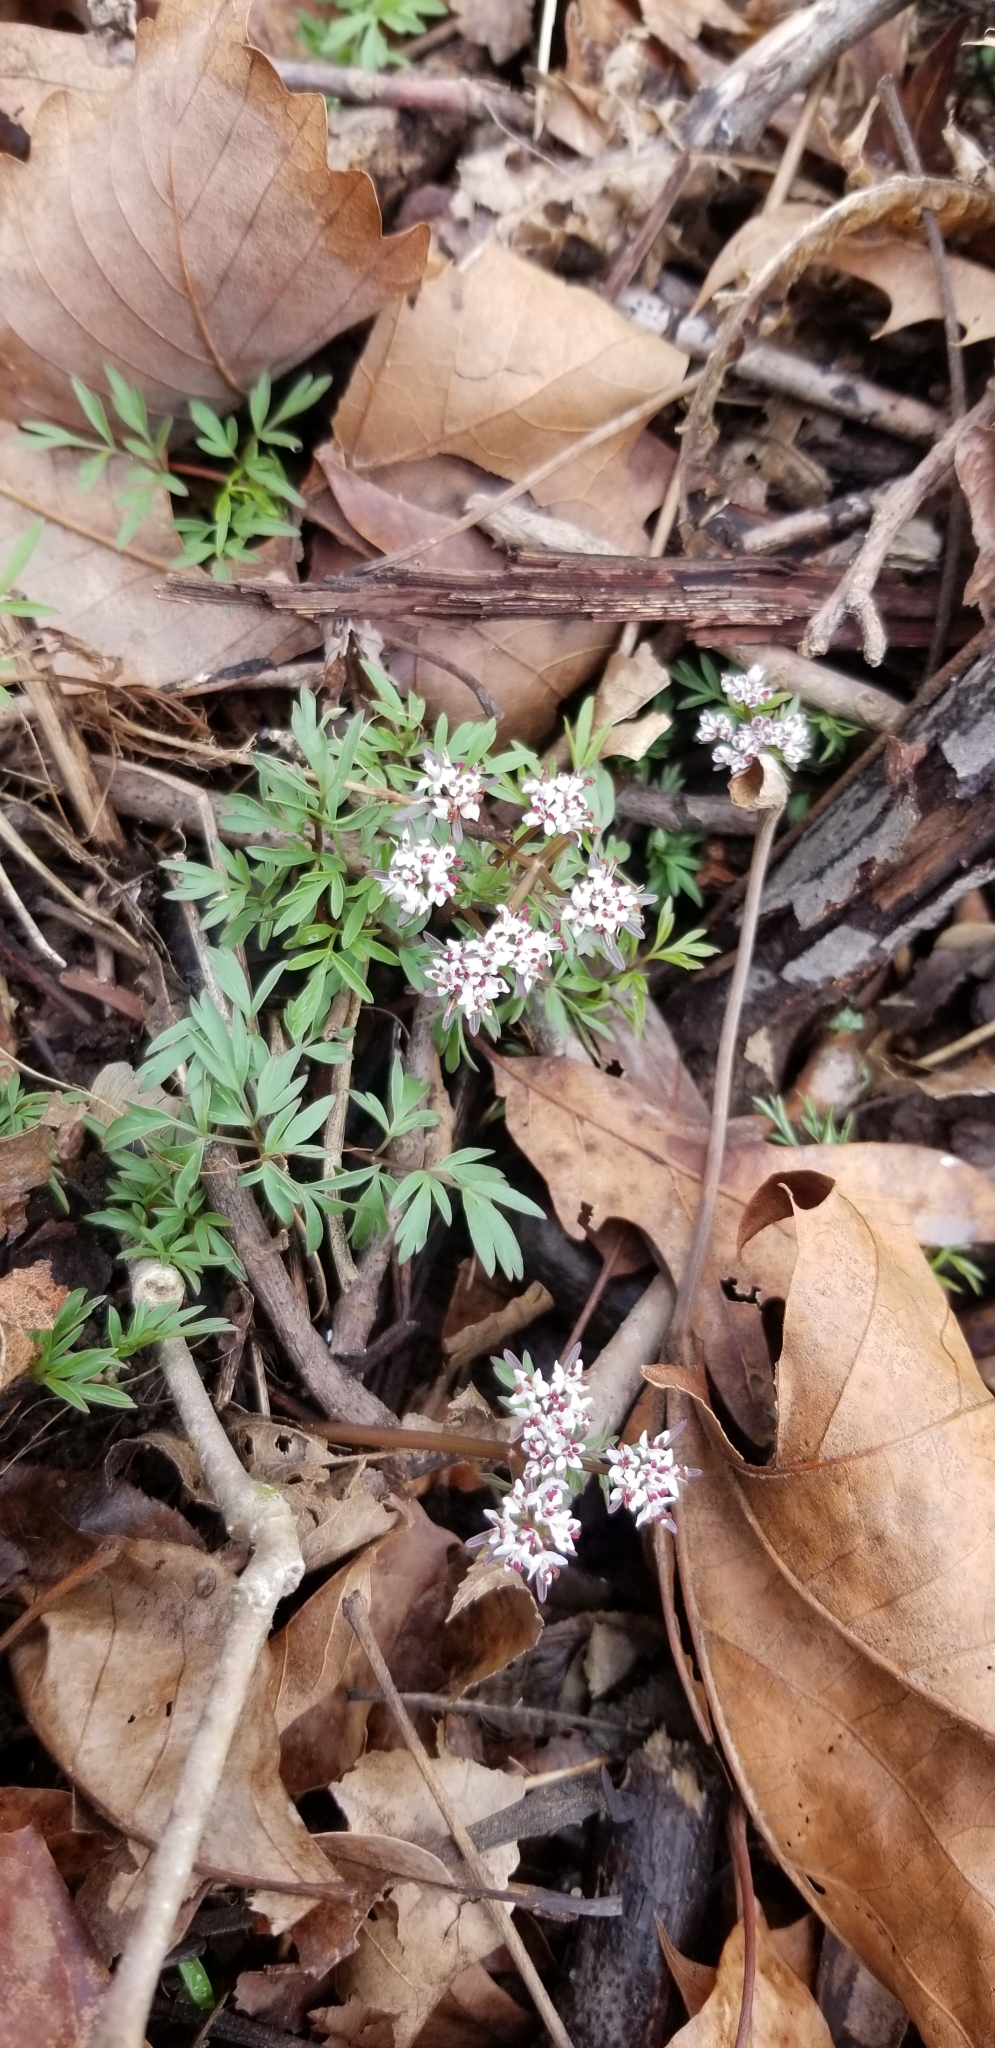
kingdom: Plantae
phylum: Tracheophyta
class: Magnoliopsida
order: Apiales
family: Apiaceae
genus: Erigenia
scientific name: Erigenia bulbosa
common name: Pepper-and-salt
